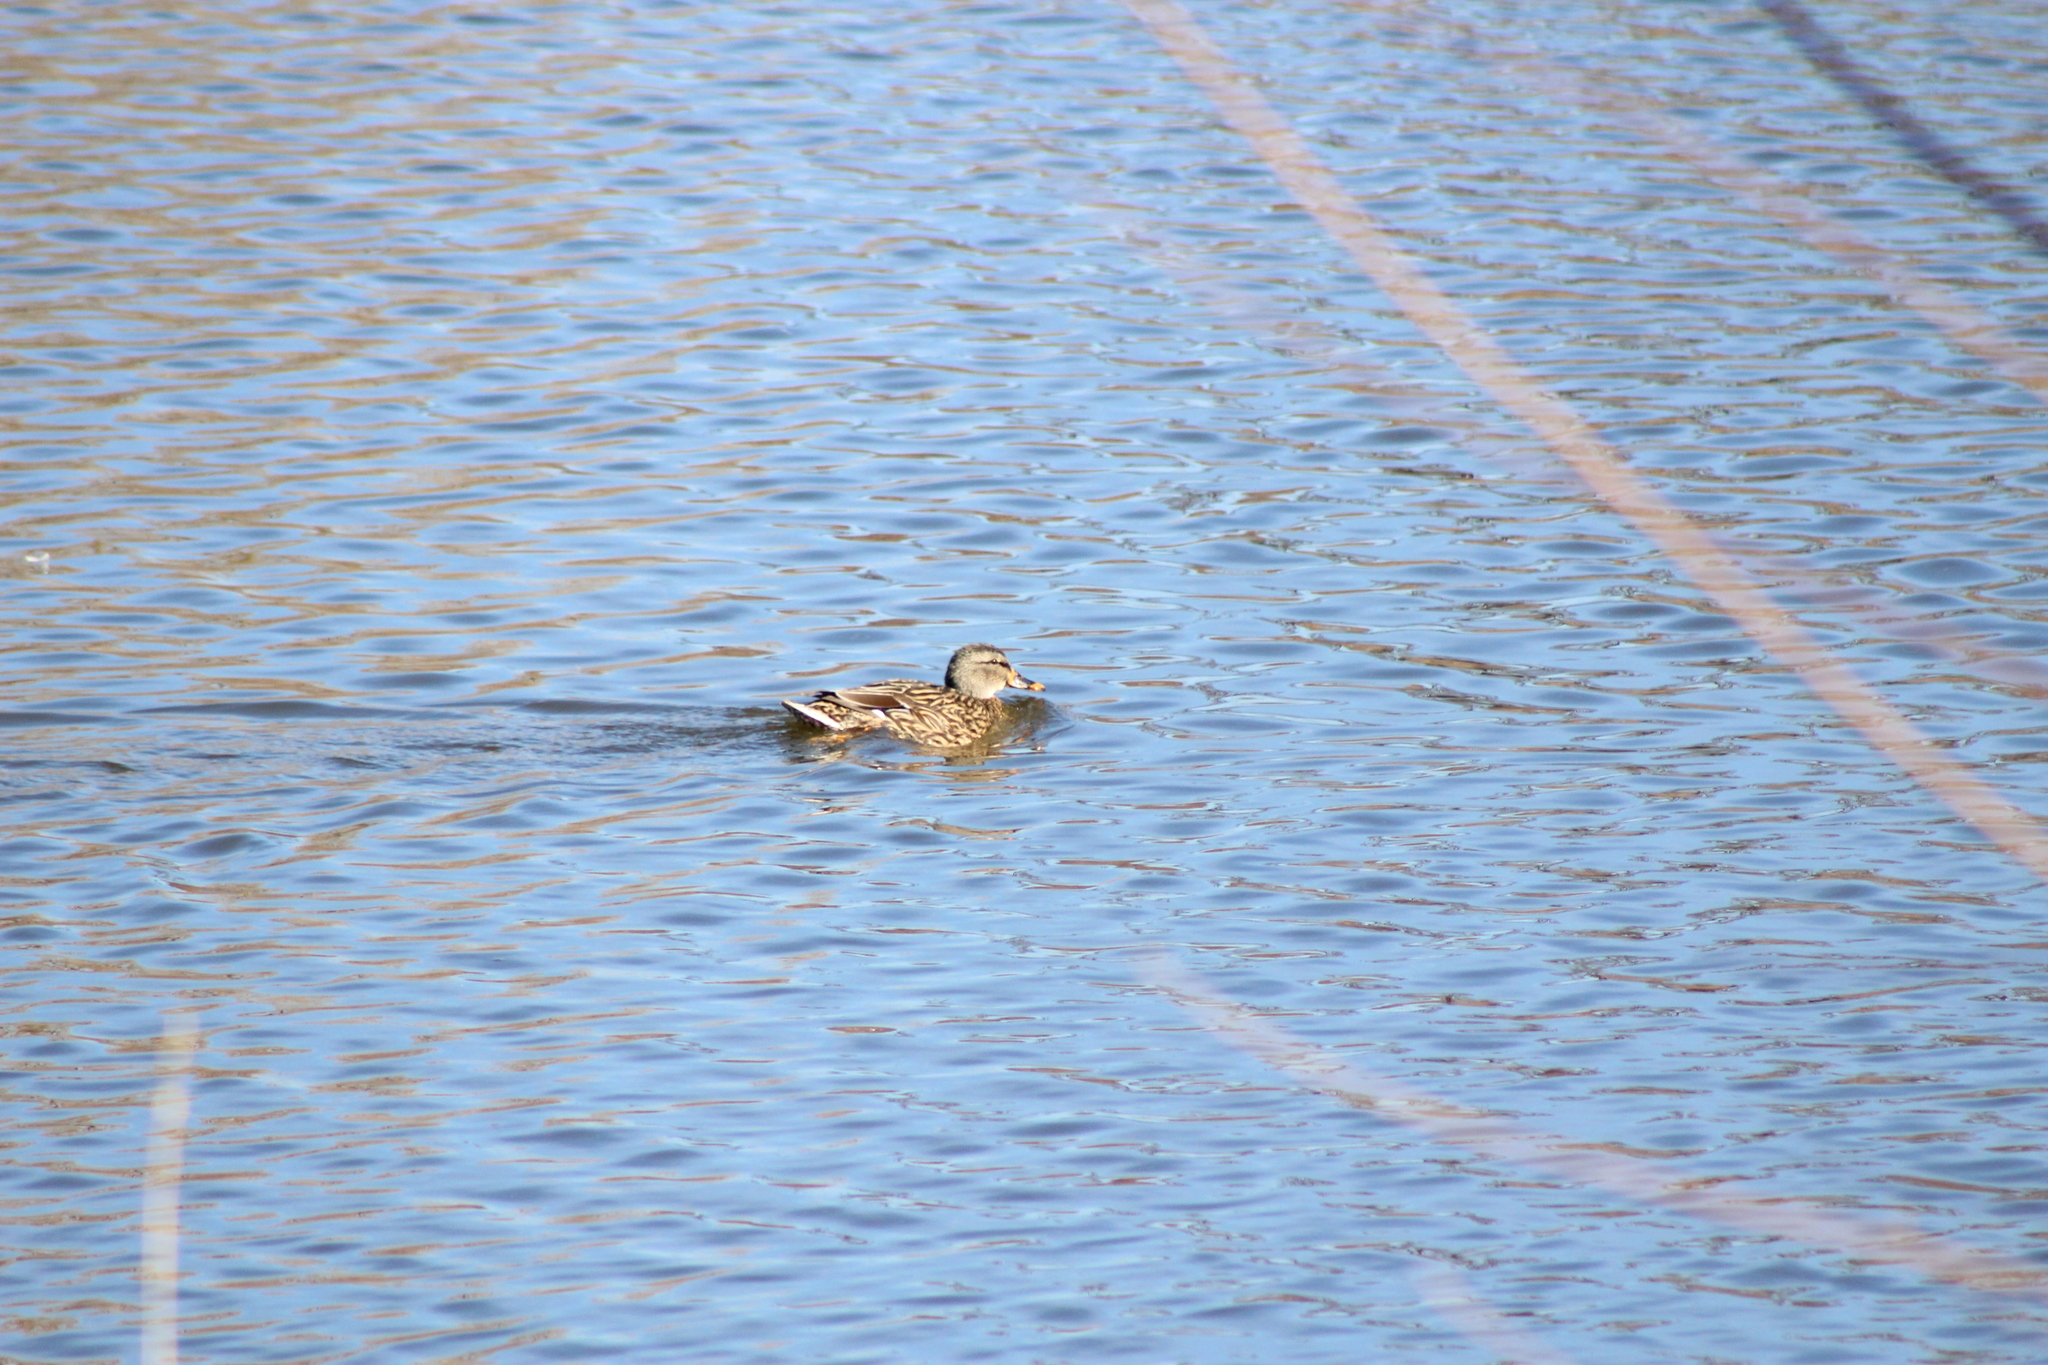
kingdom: Animalia
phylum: Chordata
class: Aves
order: Anseriformes
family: Anatidae
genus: Anas
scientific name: Anas platyrhynchos
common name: Mallard
